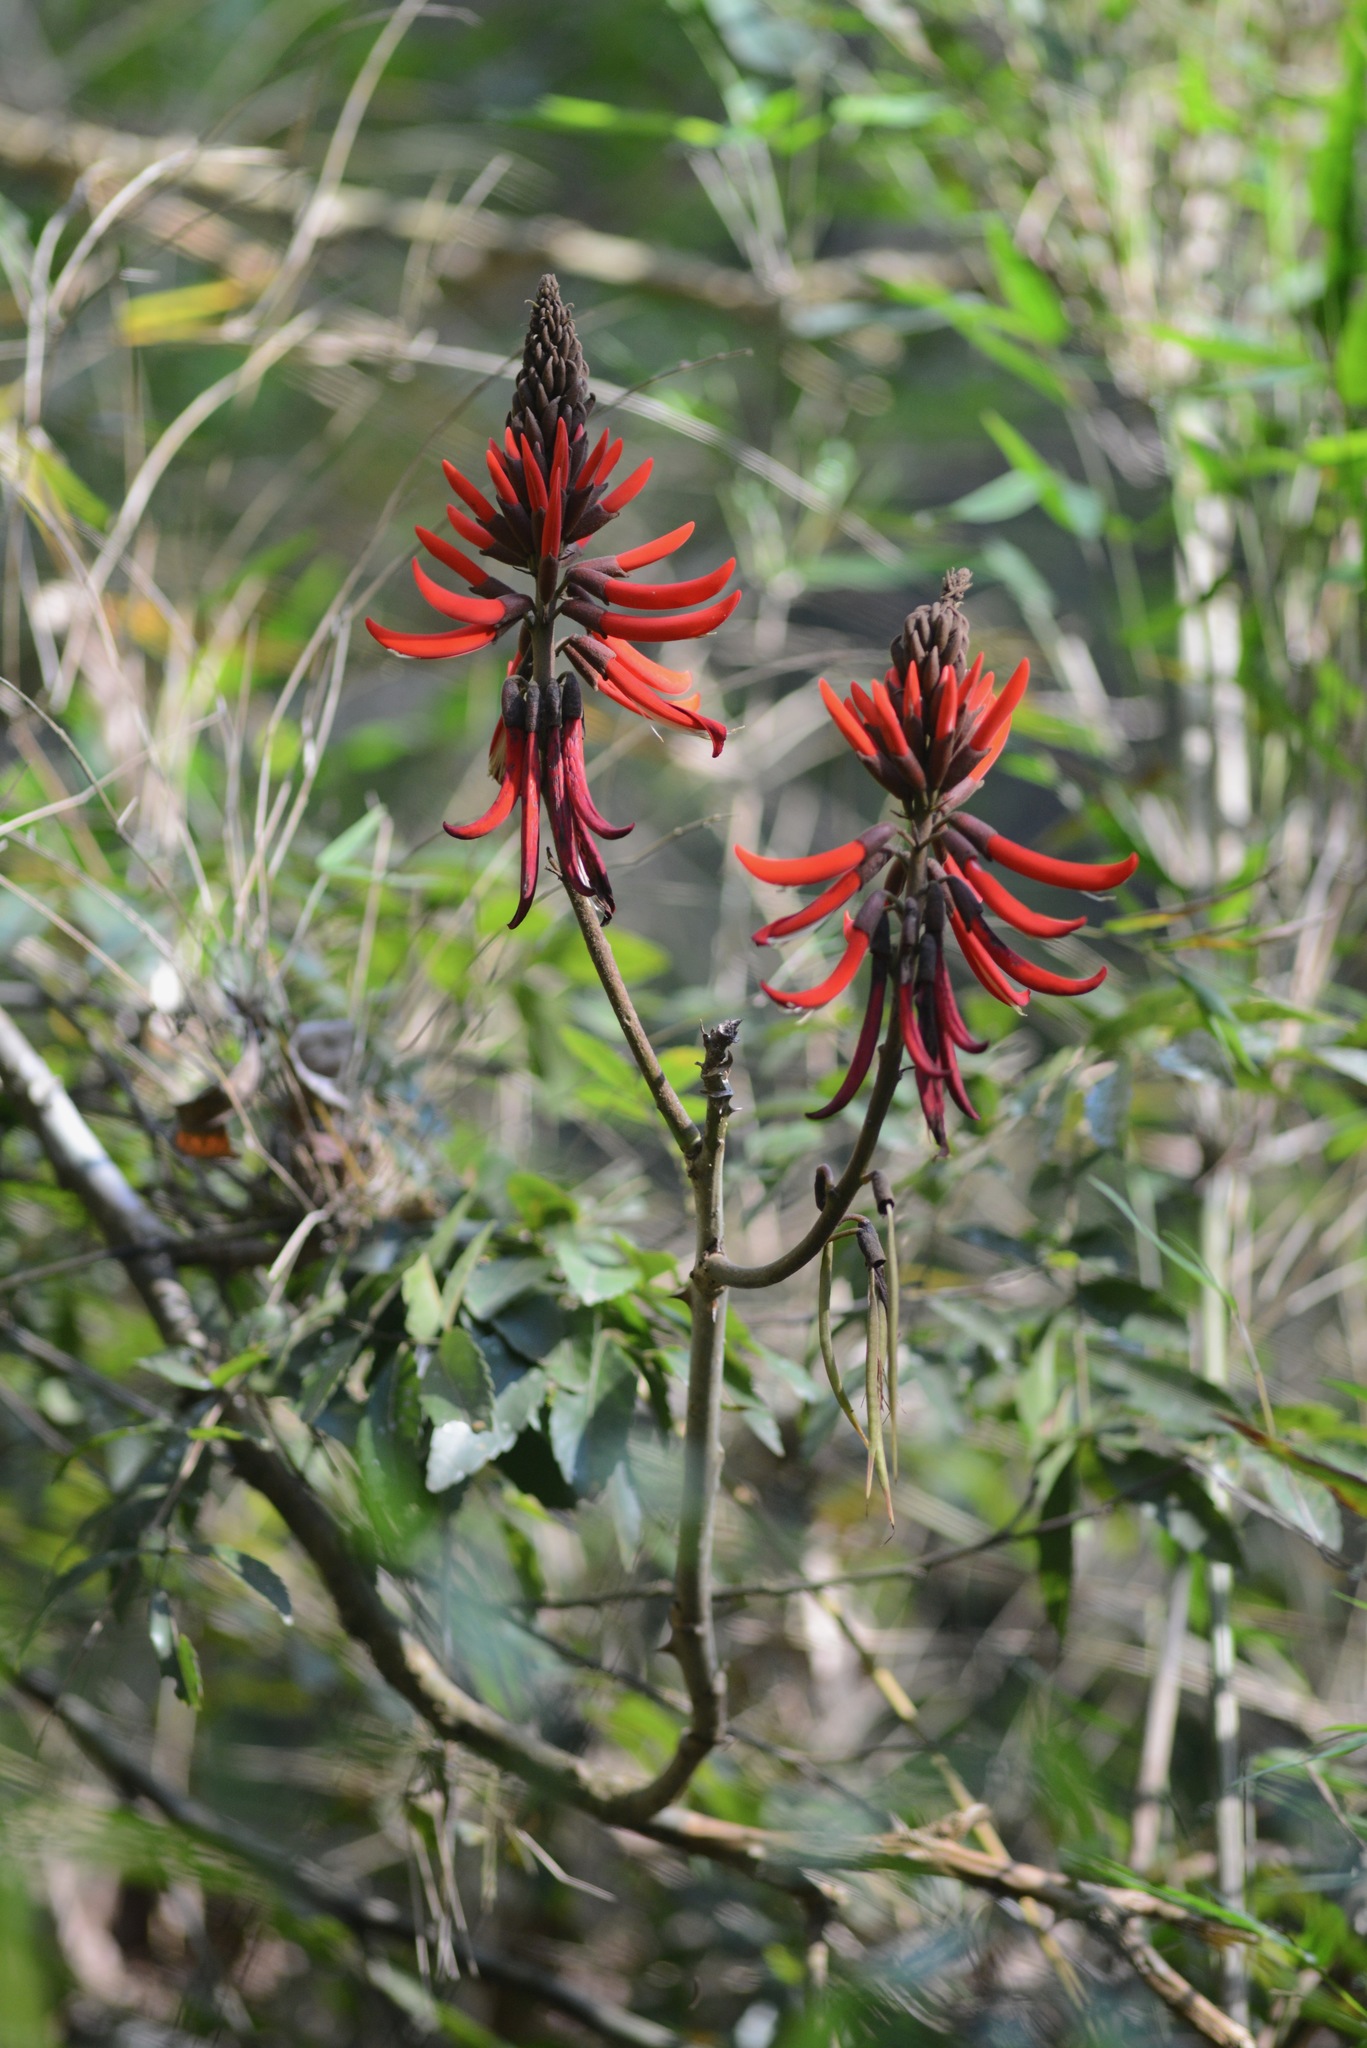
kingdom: Plantae
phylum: Tracheophyta
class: Magnoliopsida
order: Fabales
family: Fabaceae
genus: Erythrina
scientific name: Erythrina speciosa
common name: Coral tree
